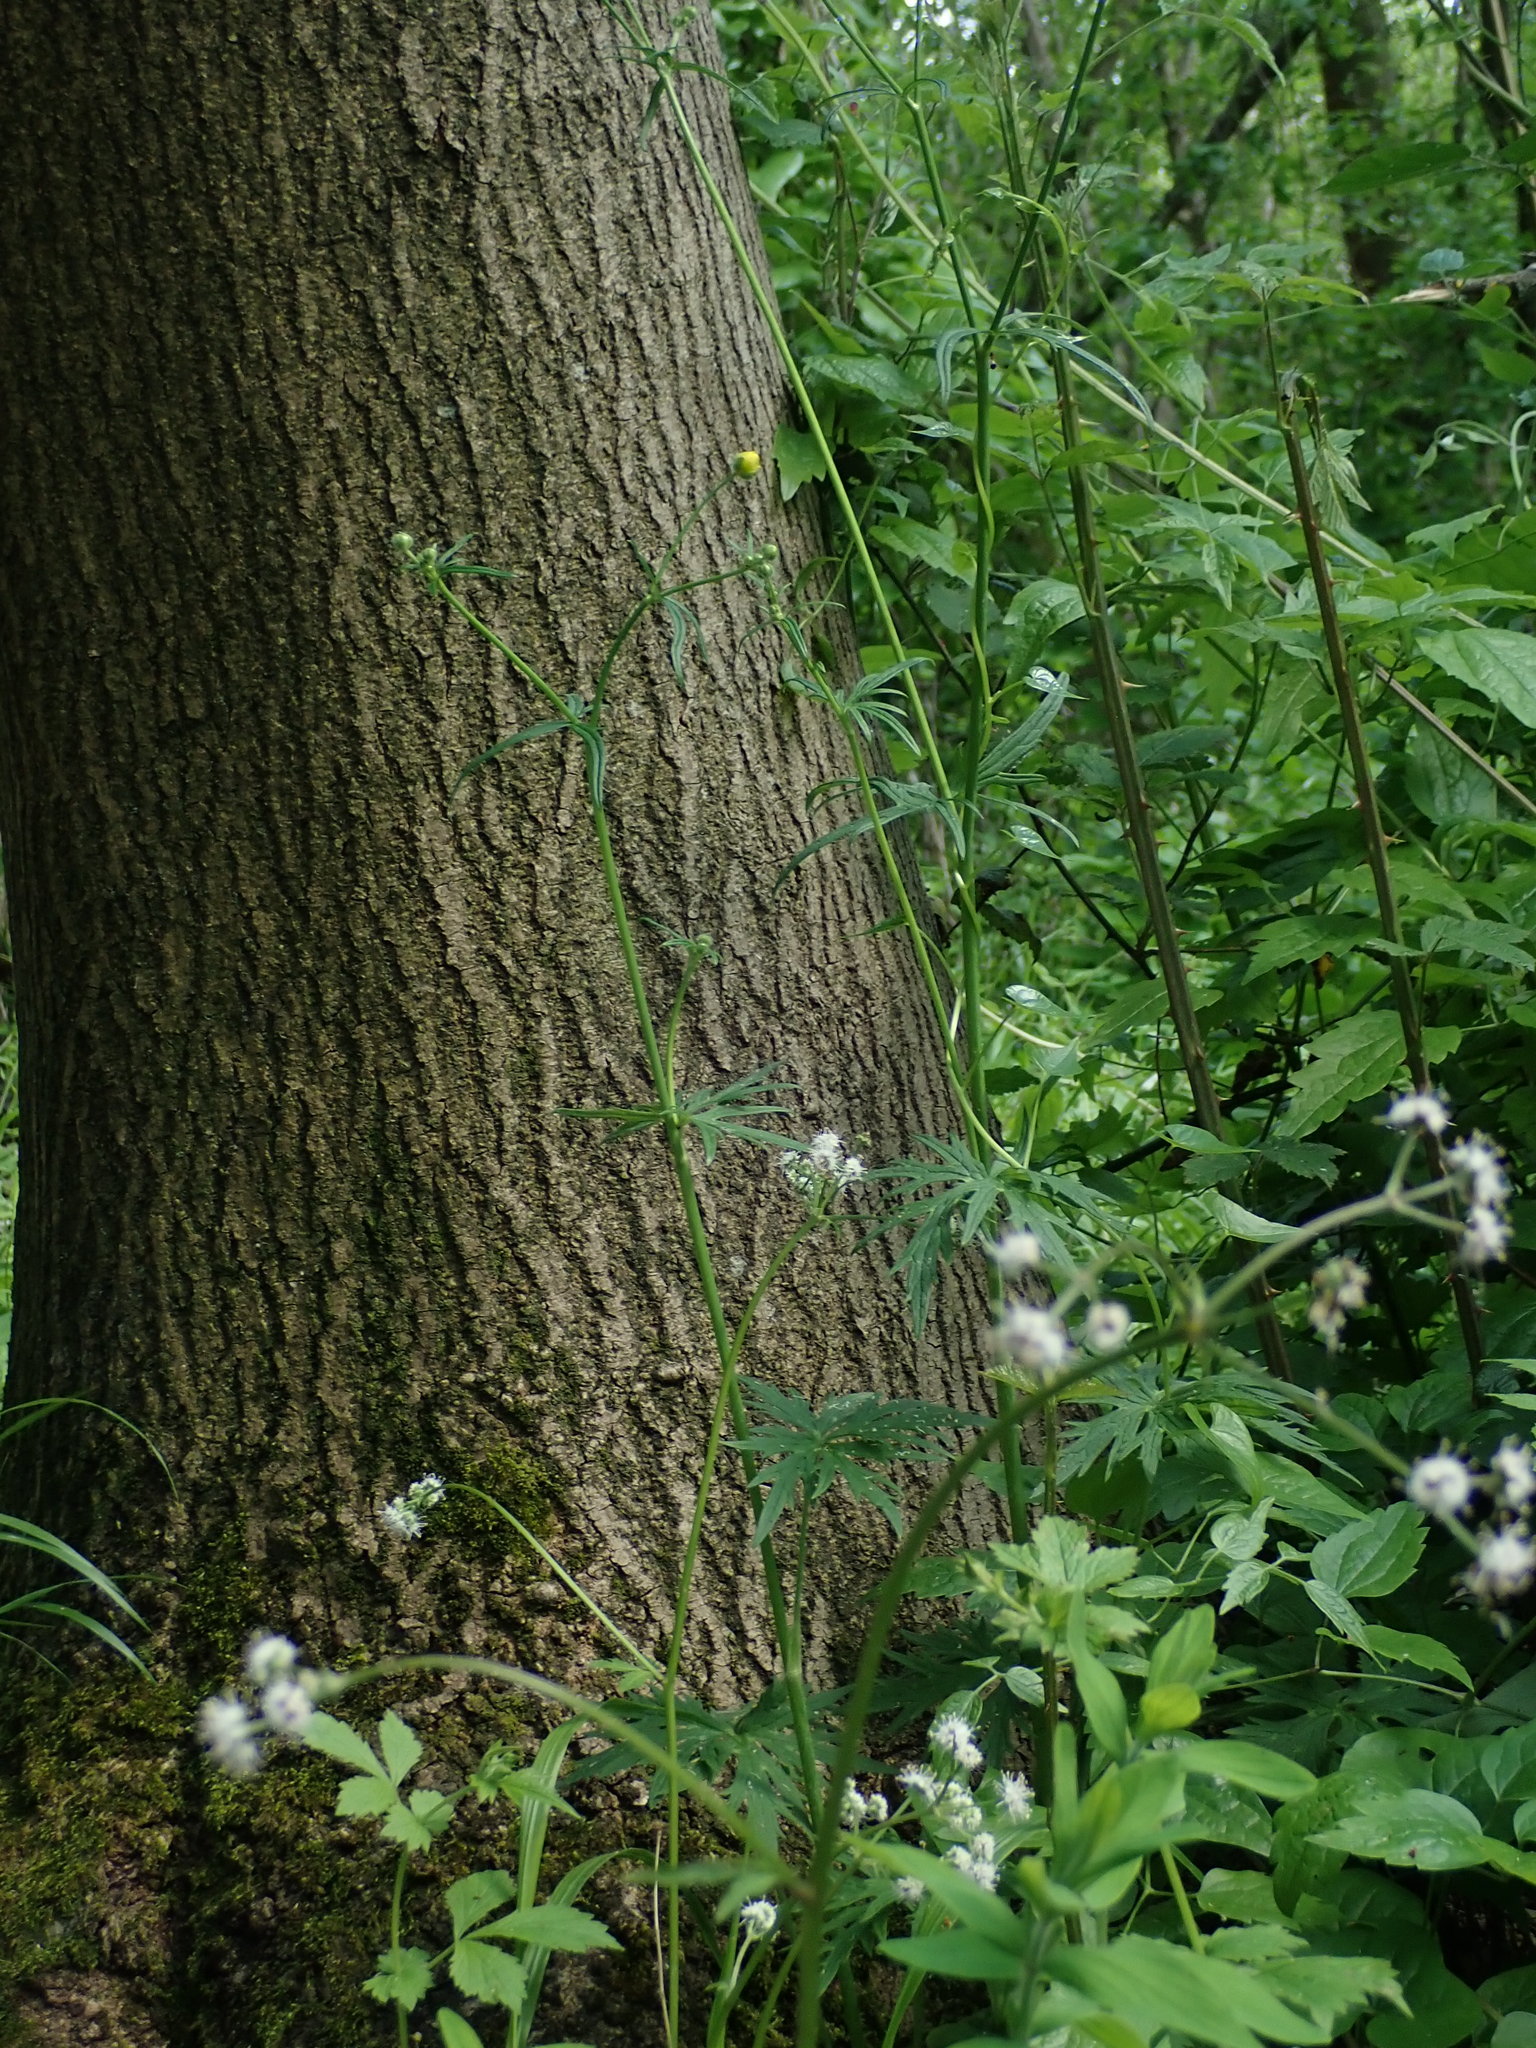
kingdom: Plantae
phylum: Tracheophyta
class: Magnoliopsida
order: Ranunculales
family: Ranunculaceae
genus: Ranunculus
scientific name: Ranunculus acris
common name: Meadow buttercup
